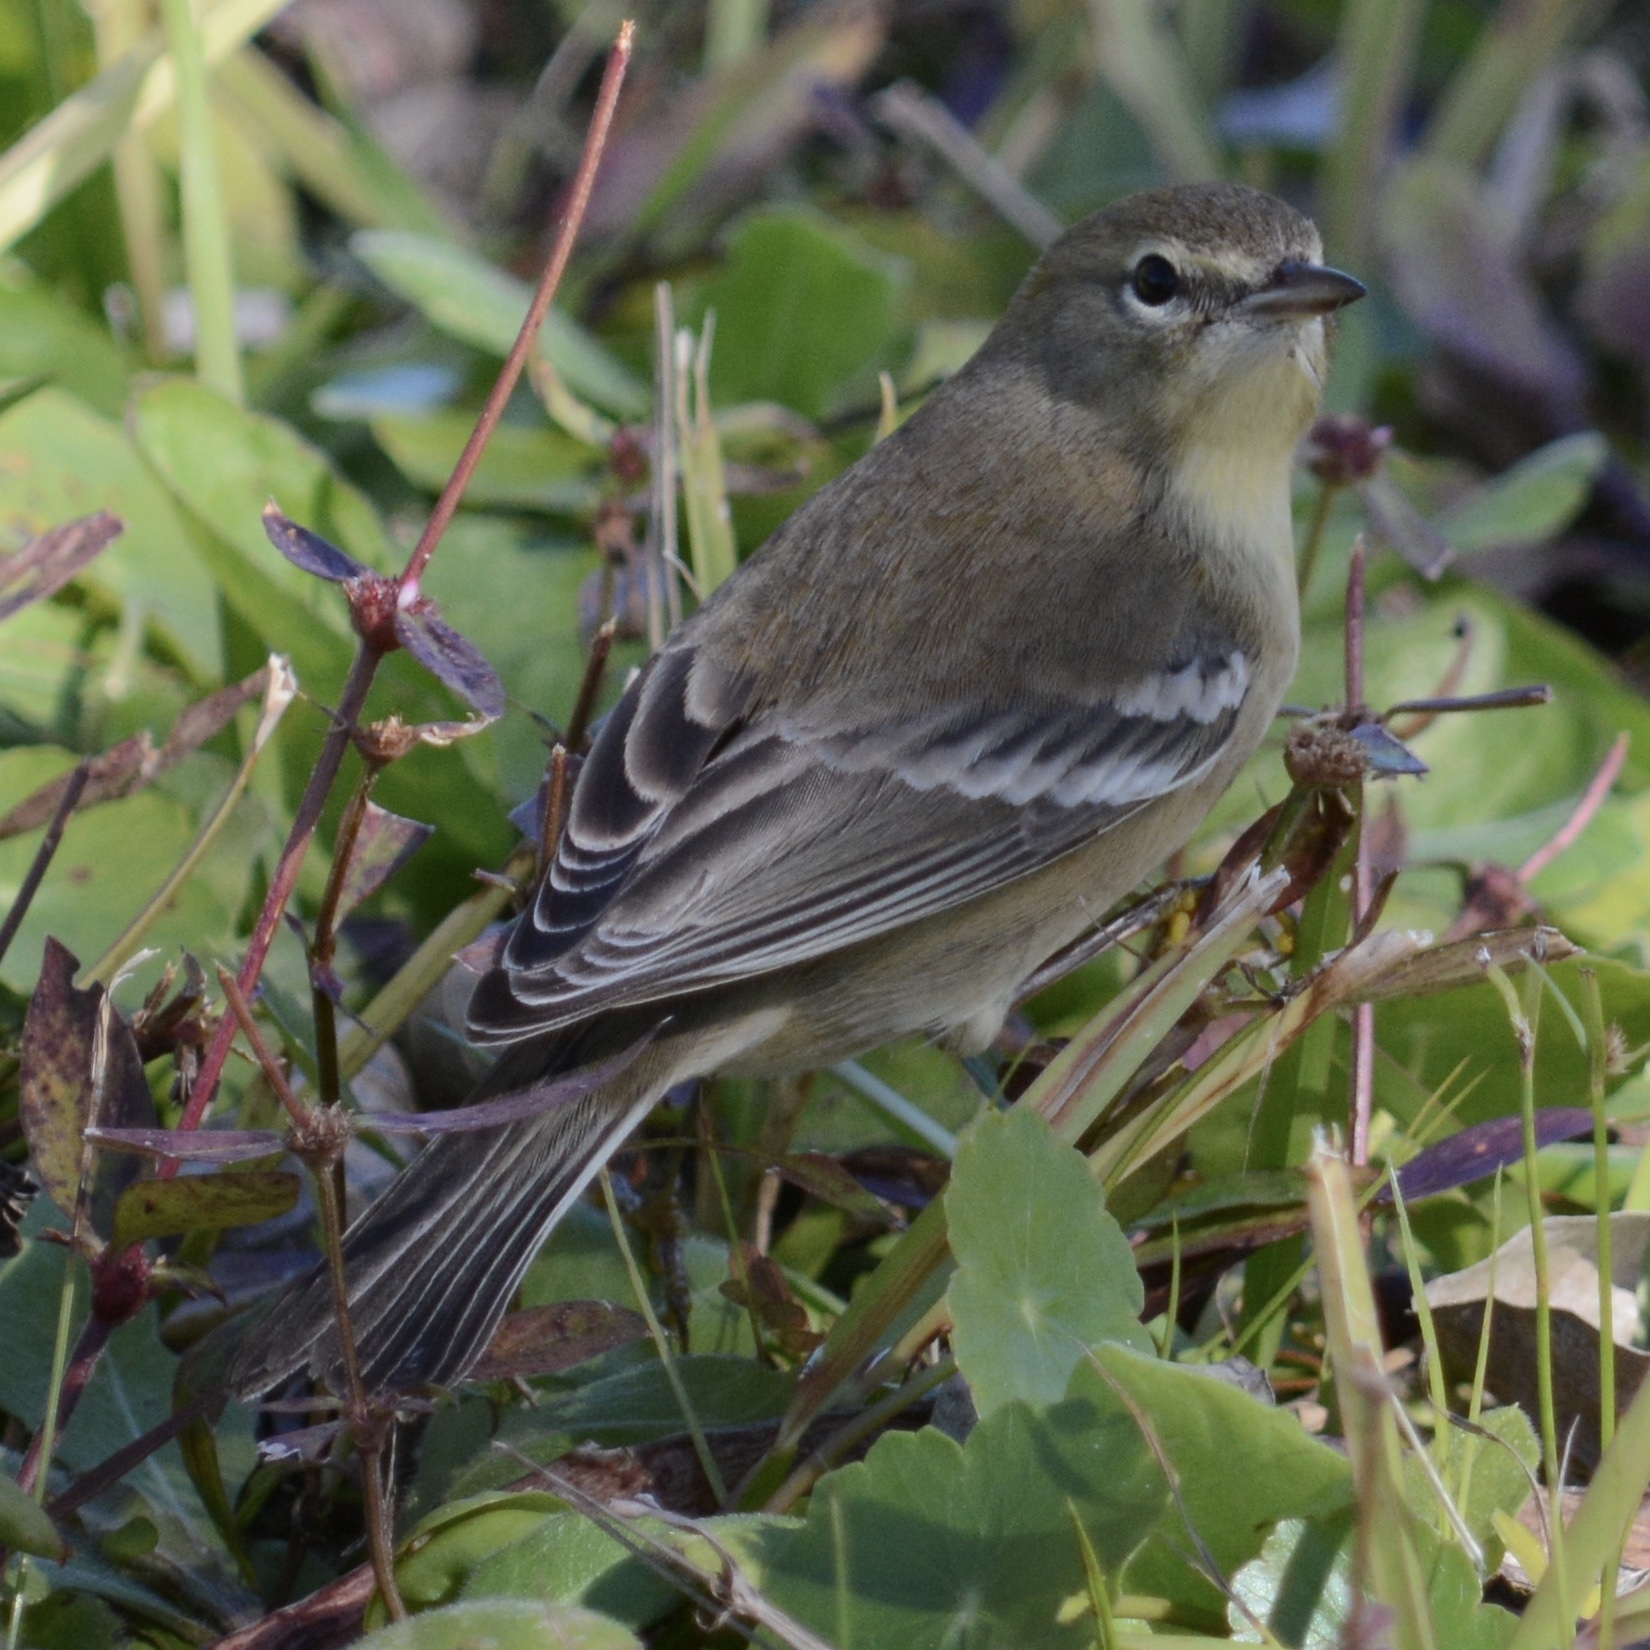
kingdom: Animalia
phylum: Chordata
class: Aves
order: Passeriformes
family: Parulidae
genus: Setophaga
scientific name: Setophaga pinus
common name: Pine warbler
